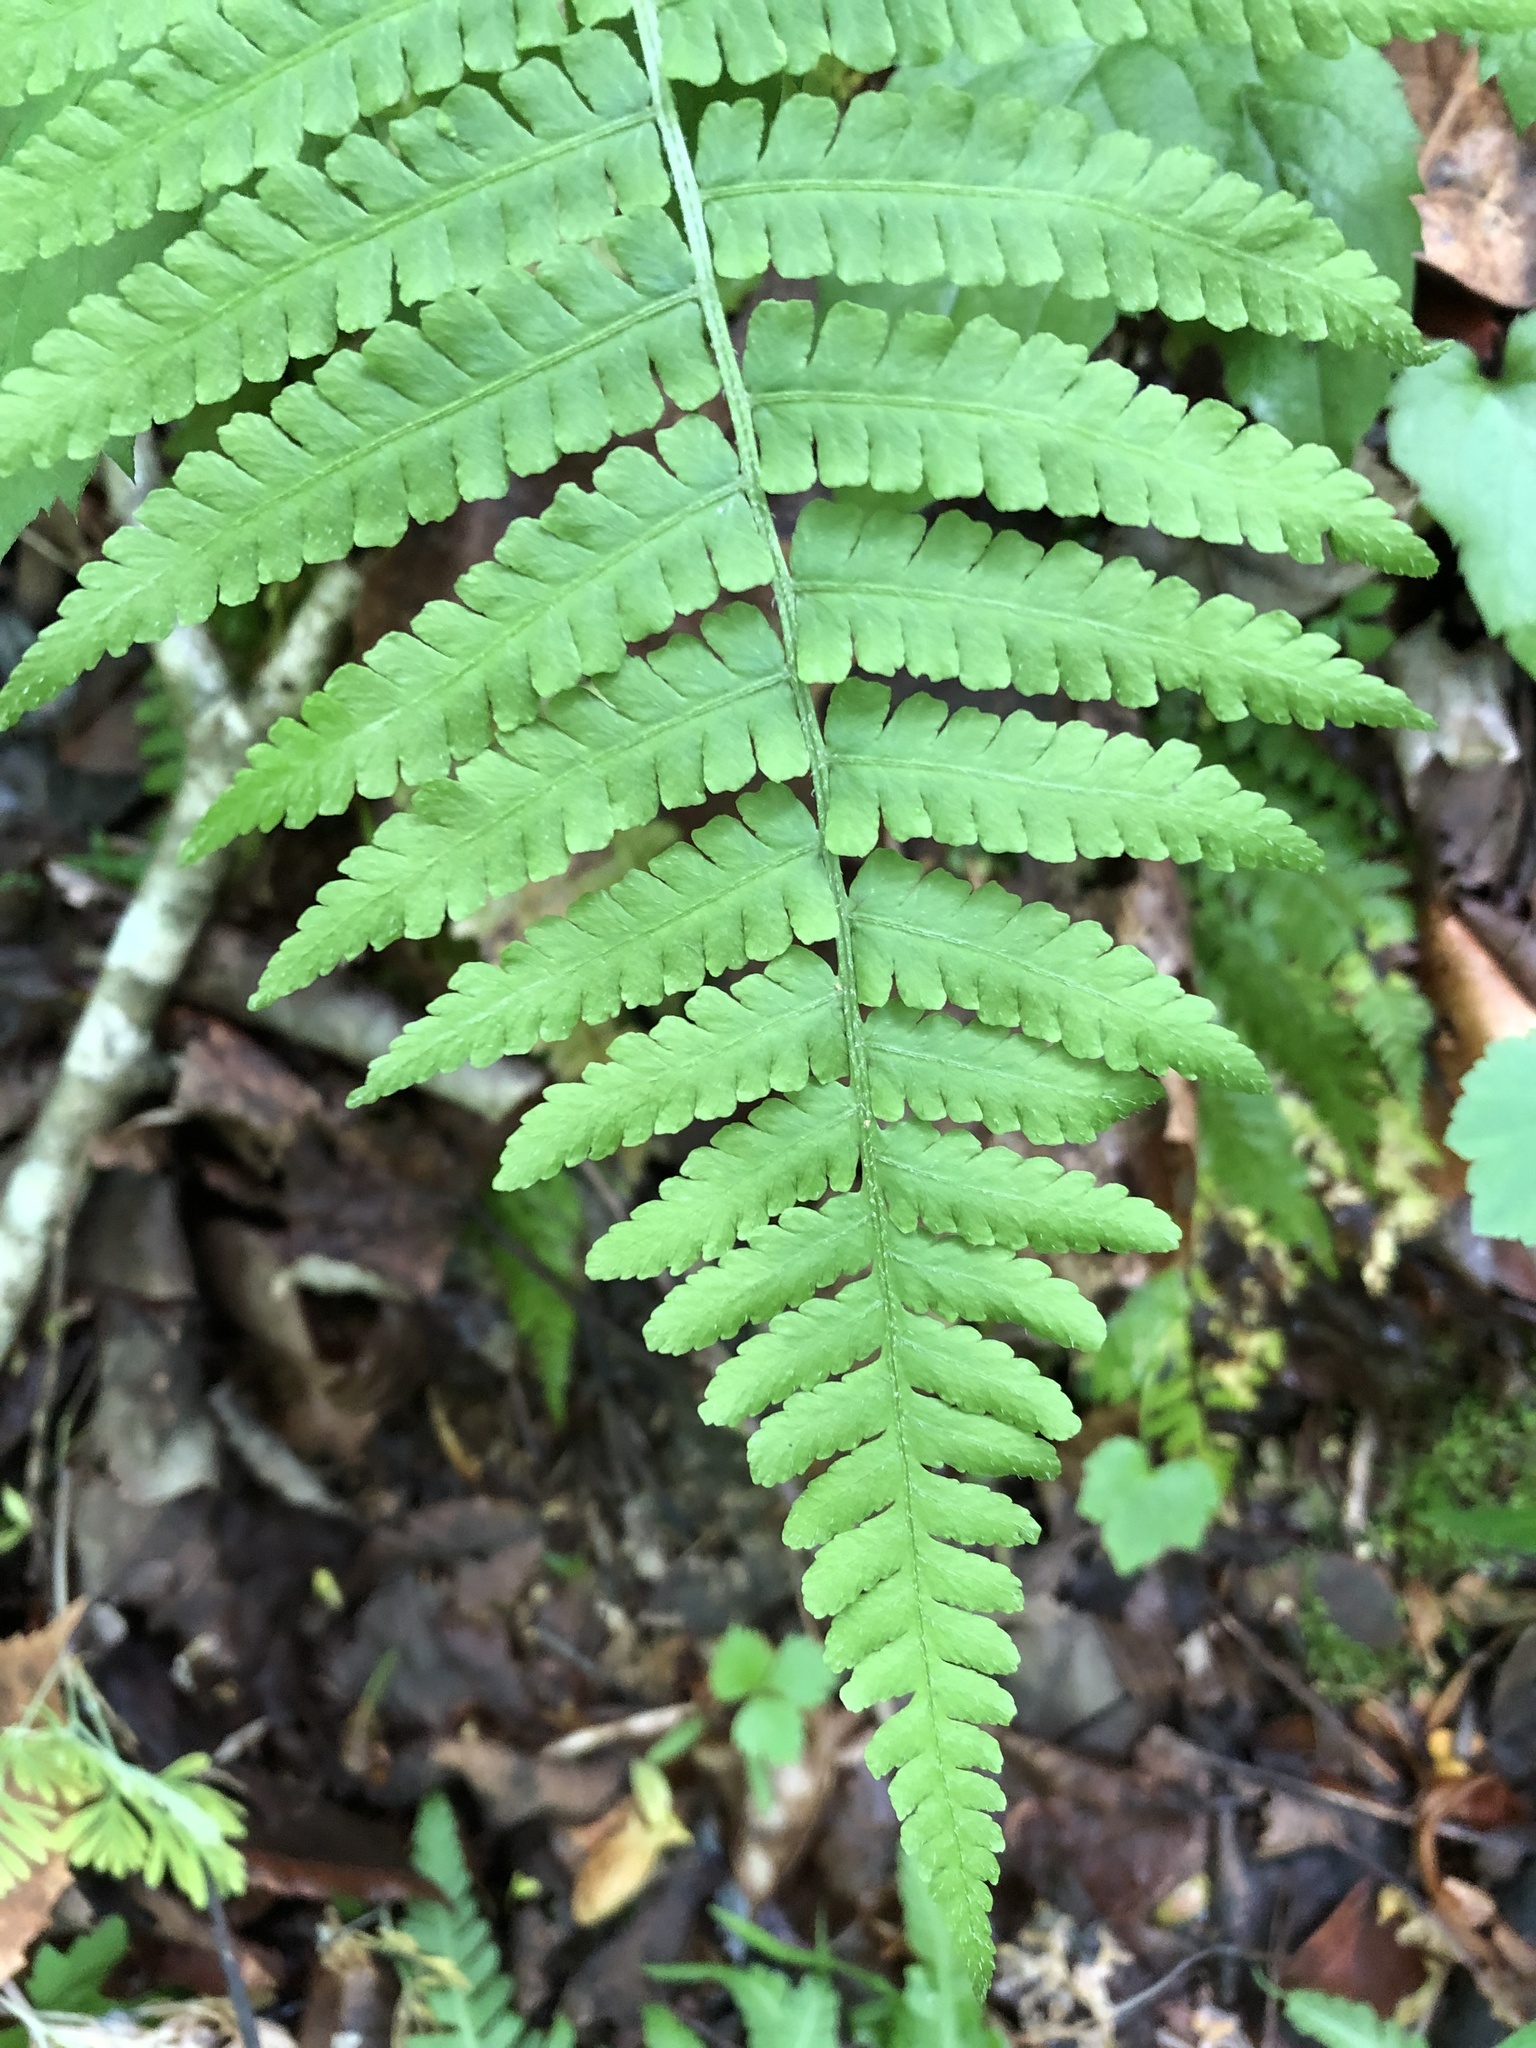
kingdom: Plantae
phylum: Tracheophyta
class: Polypodiopsida
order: Polypodiales
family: Athyriaceae
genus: Deparia
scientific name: Deparia acrostichoides
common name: Silver false spleenwort
